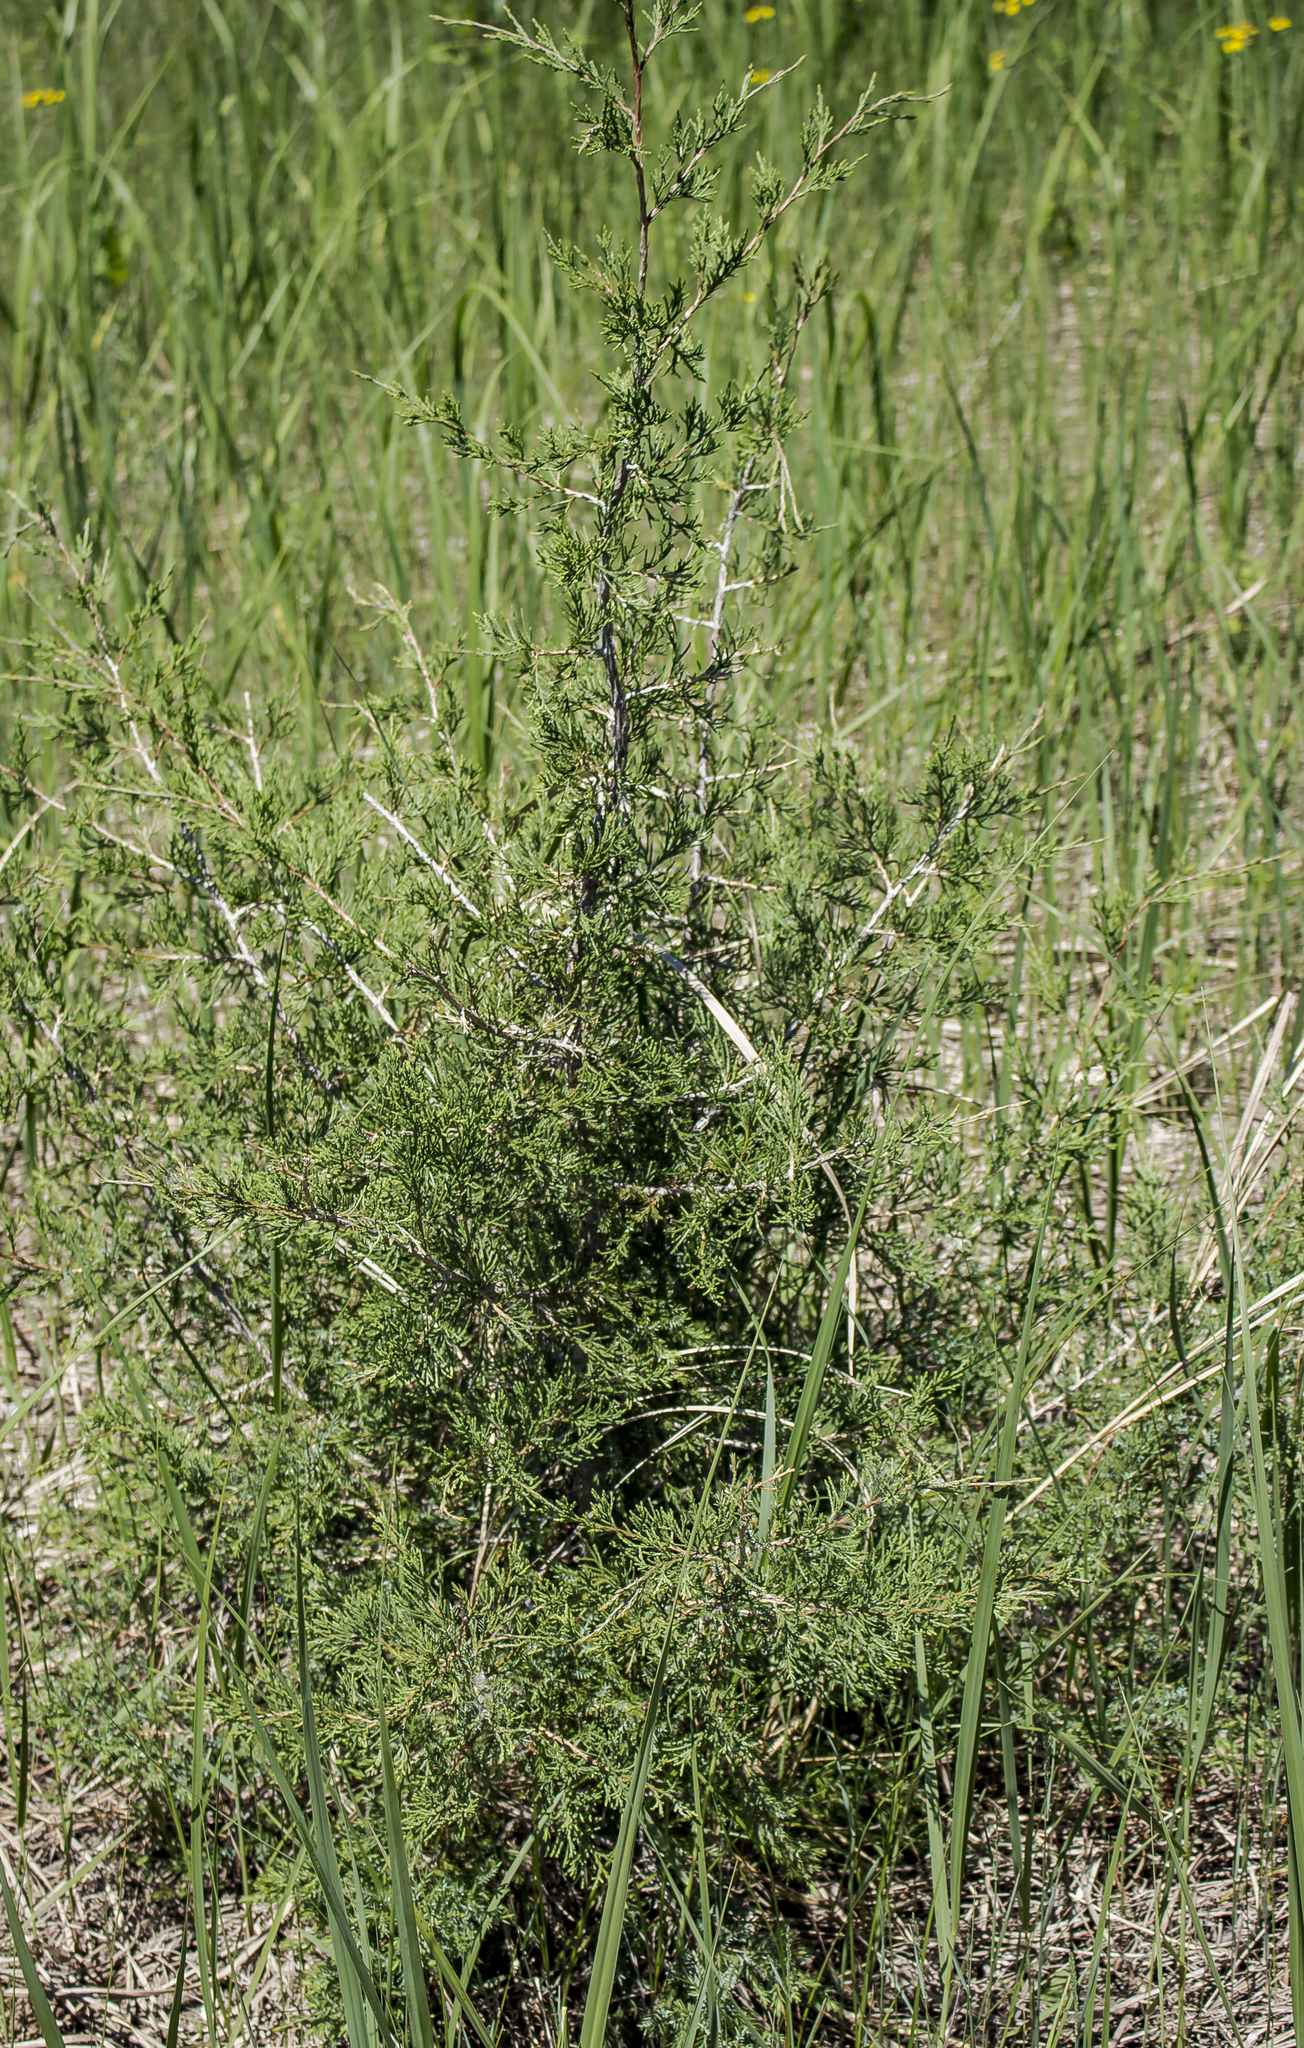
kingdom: Plantae
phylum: Tracheophyta
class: Pinopsida
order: Pinales
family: Cupressaceae
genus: Juniperus
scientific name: Juniperus virginiana
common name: Red juniper
